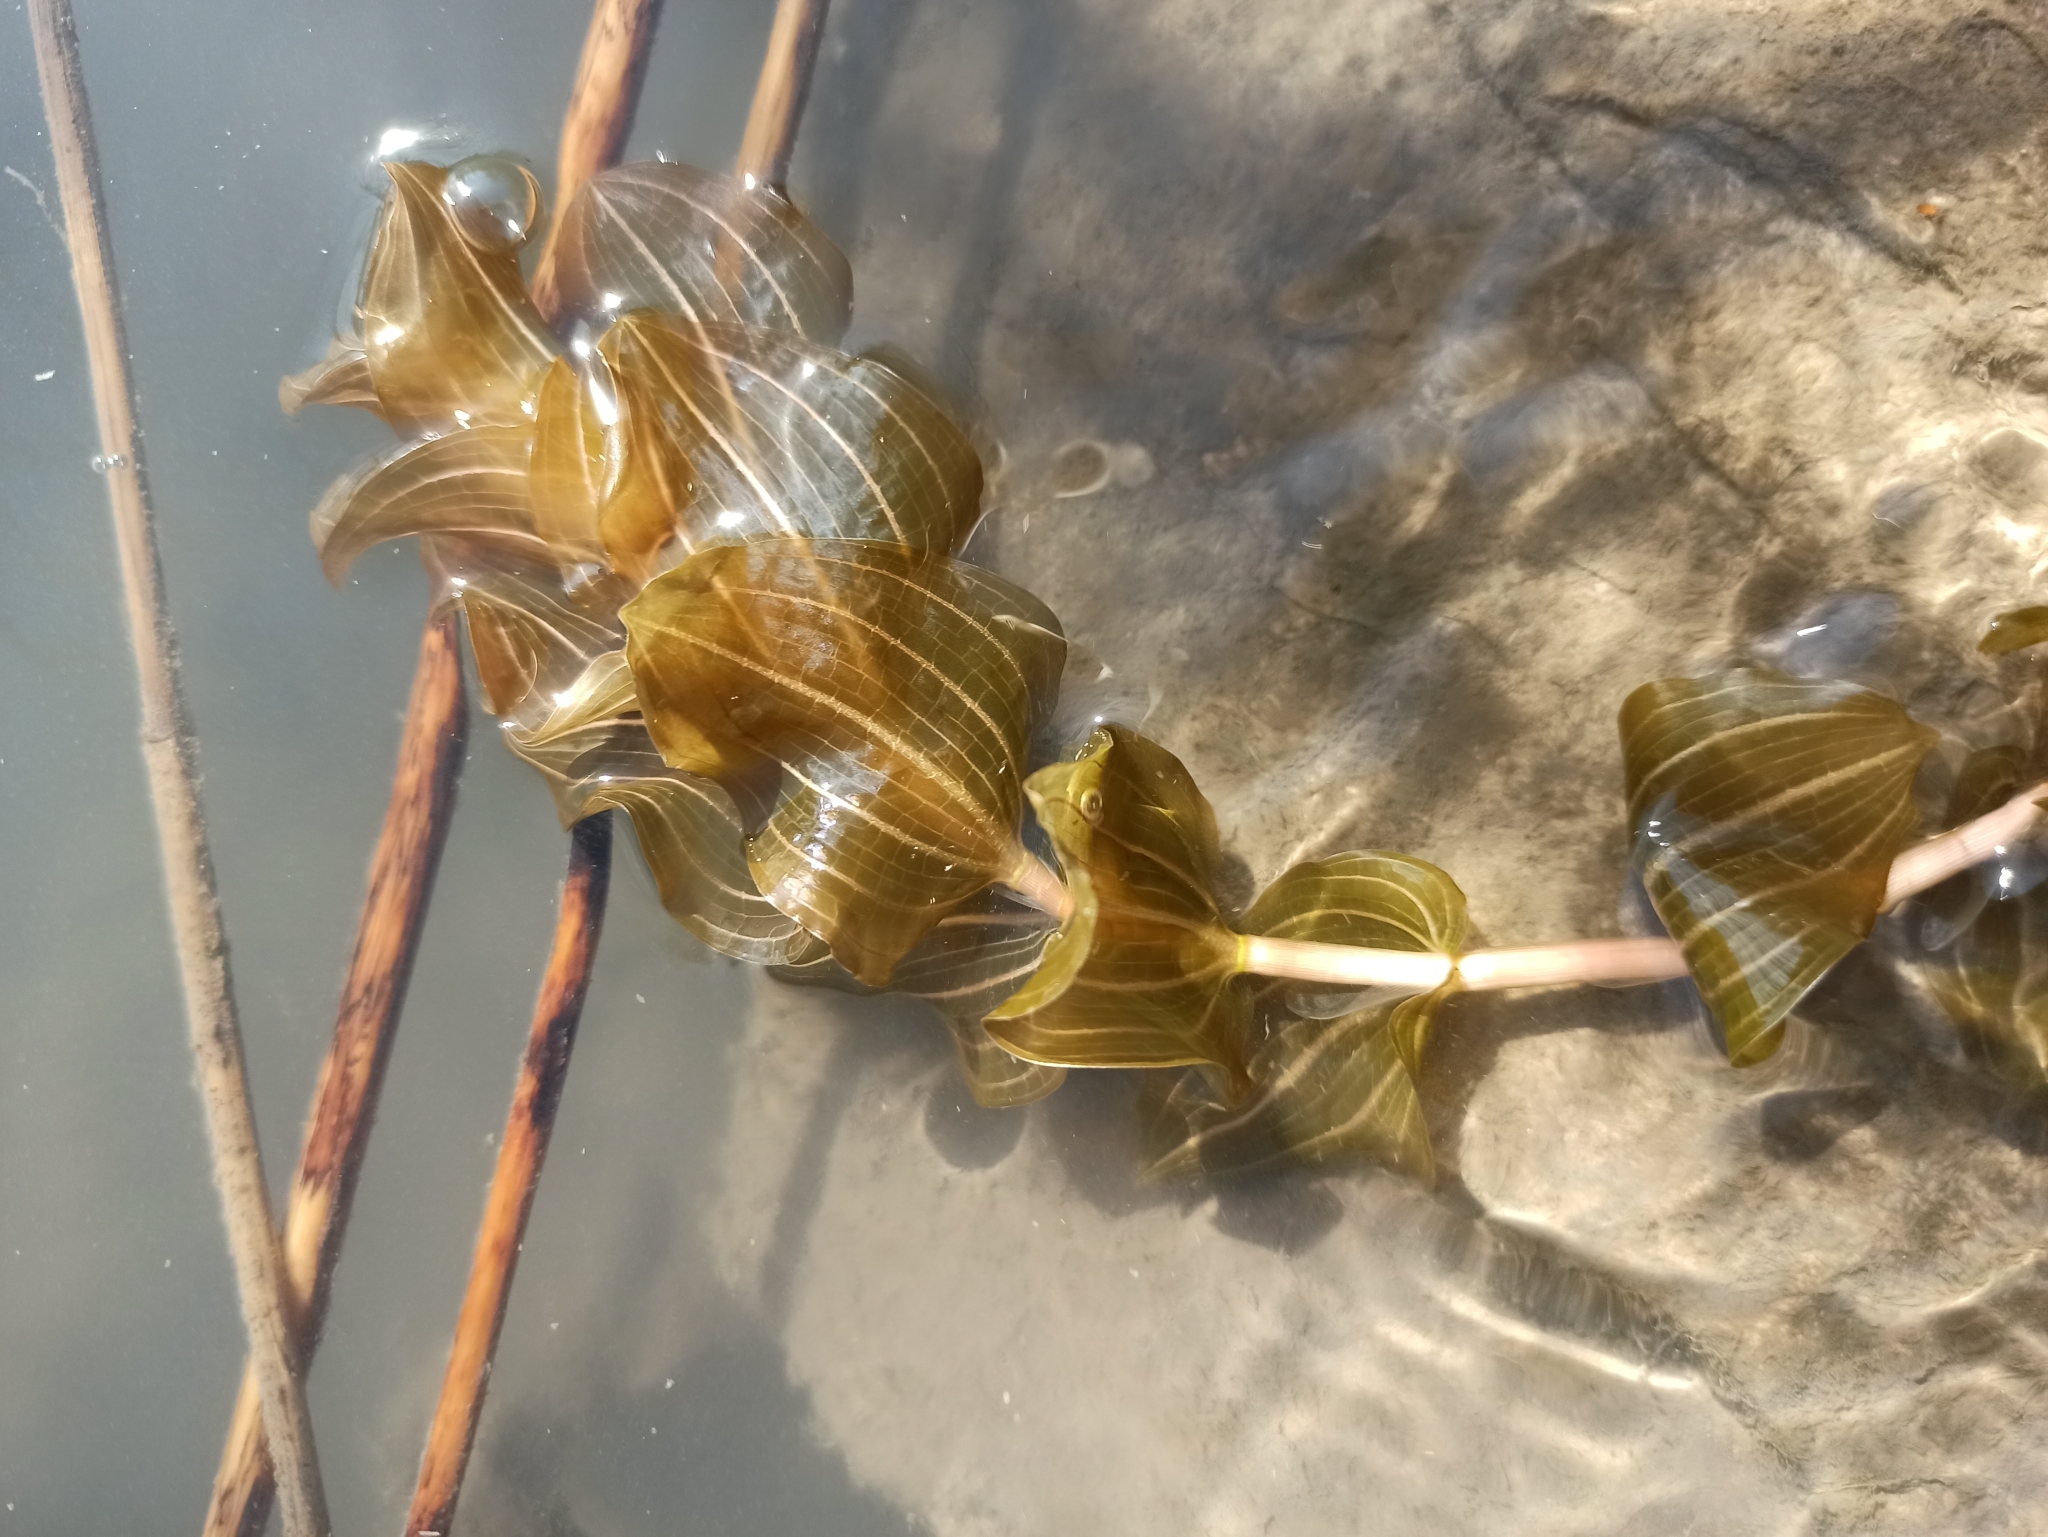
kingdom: Plantae
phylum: Tracheophyta
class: Liliopsida
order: Alismatales
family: Potamogetonaceae
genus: Potamogeton
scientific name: Potamogeton perfoliatus
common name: Perfoliate pondweed
